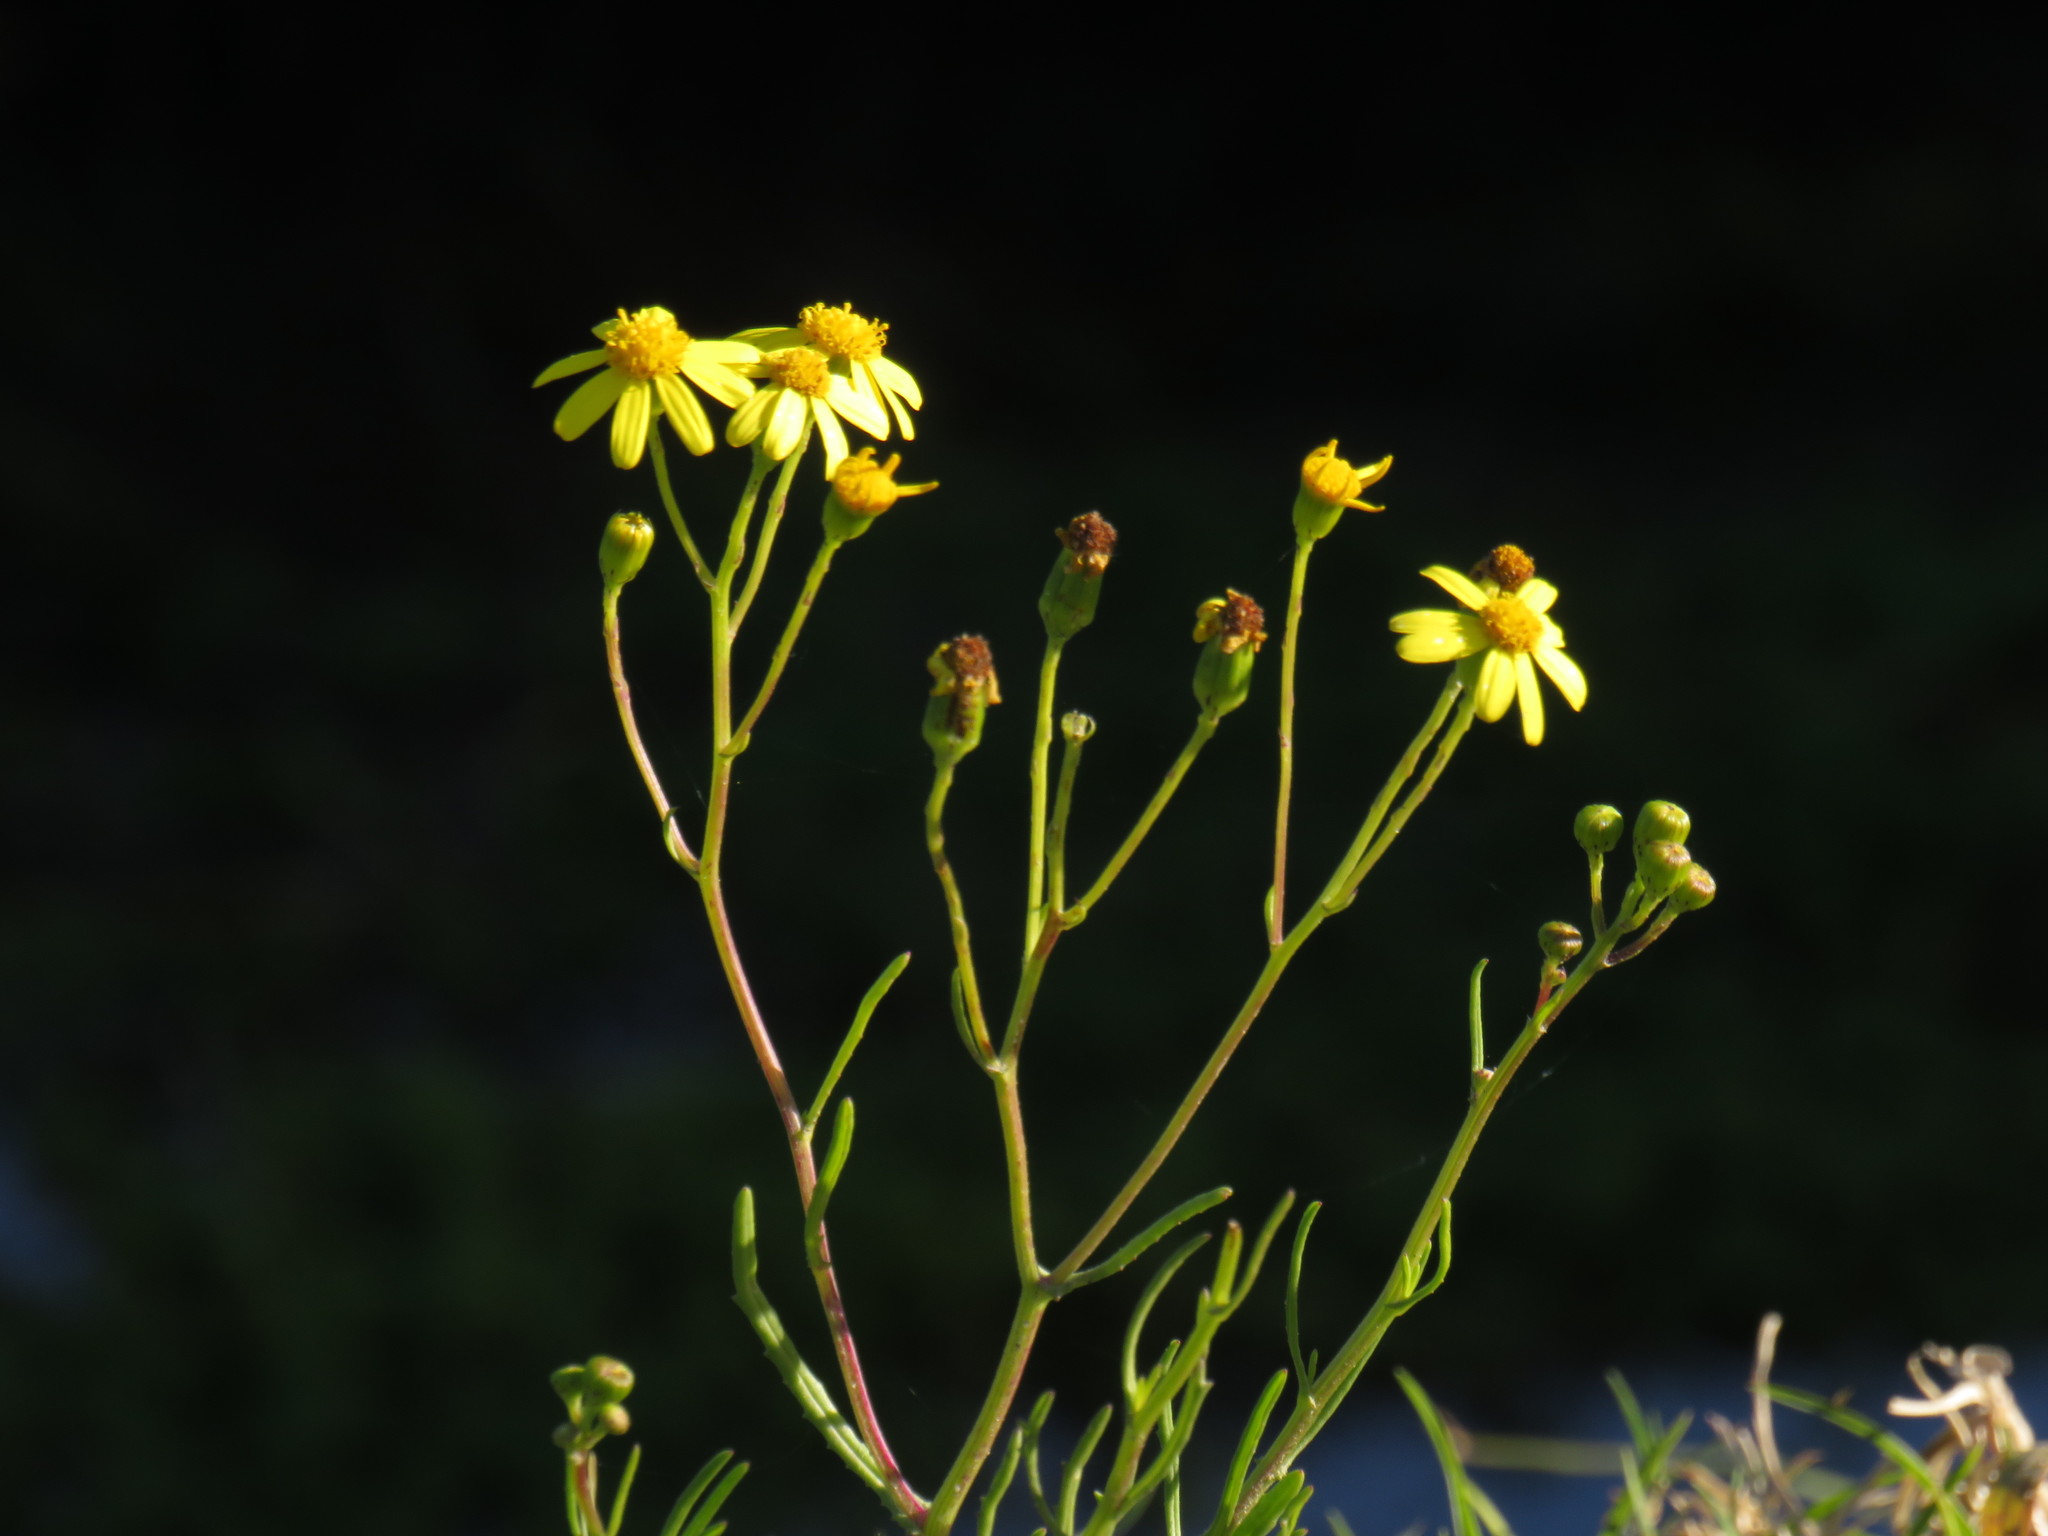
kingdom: Plantae
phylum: Tracheophyta
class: Magnoliopsida
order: Asterales
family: Asteraceae
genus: Senecio
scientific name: Senecio burchellii
